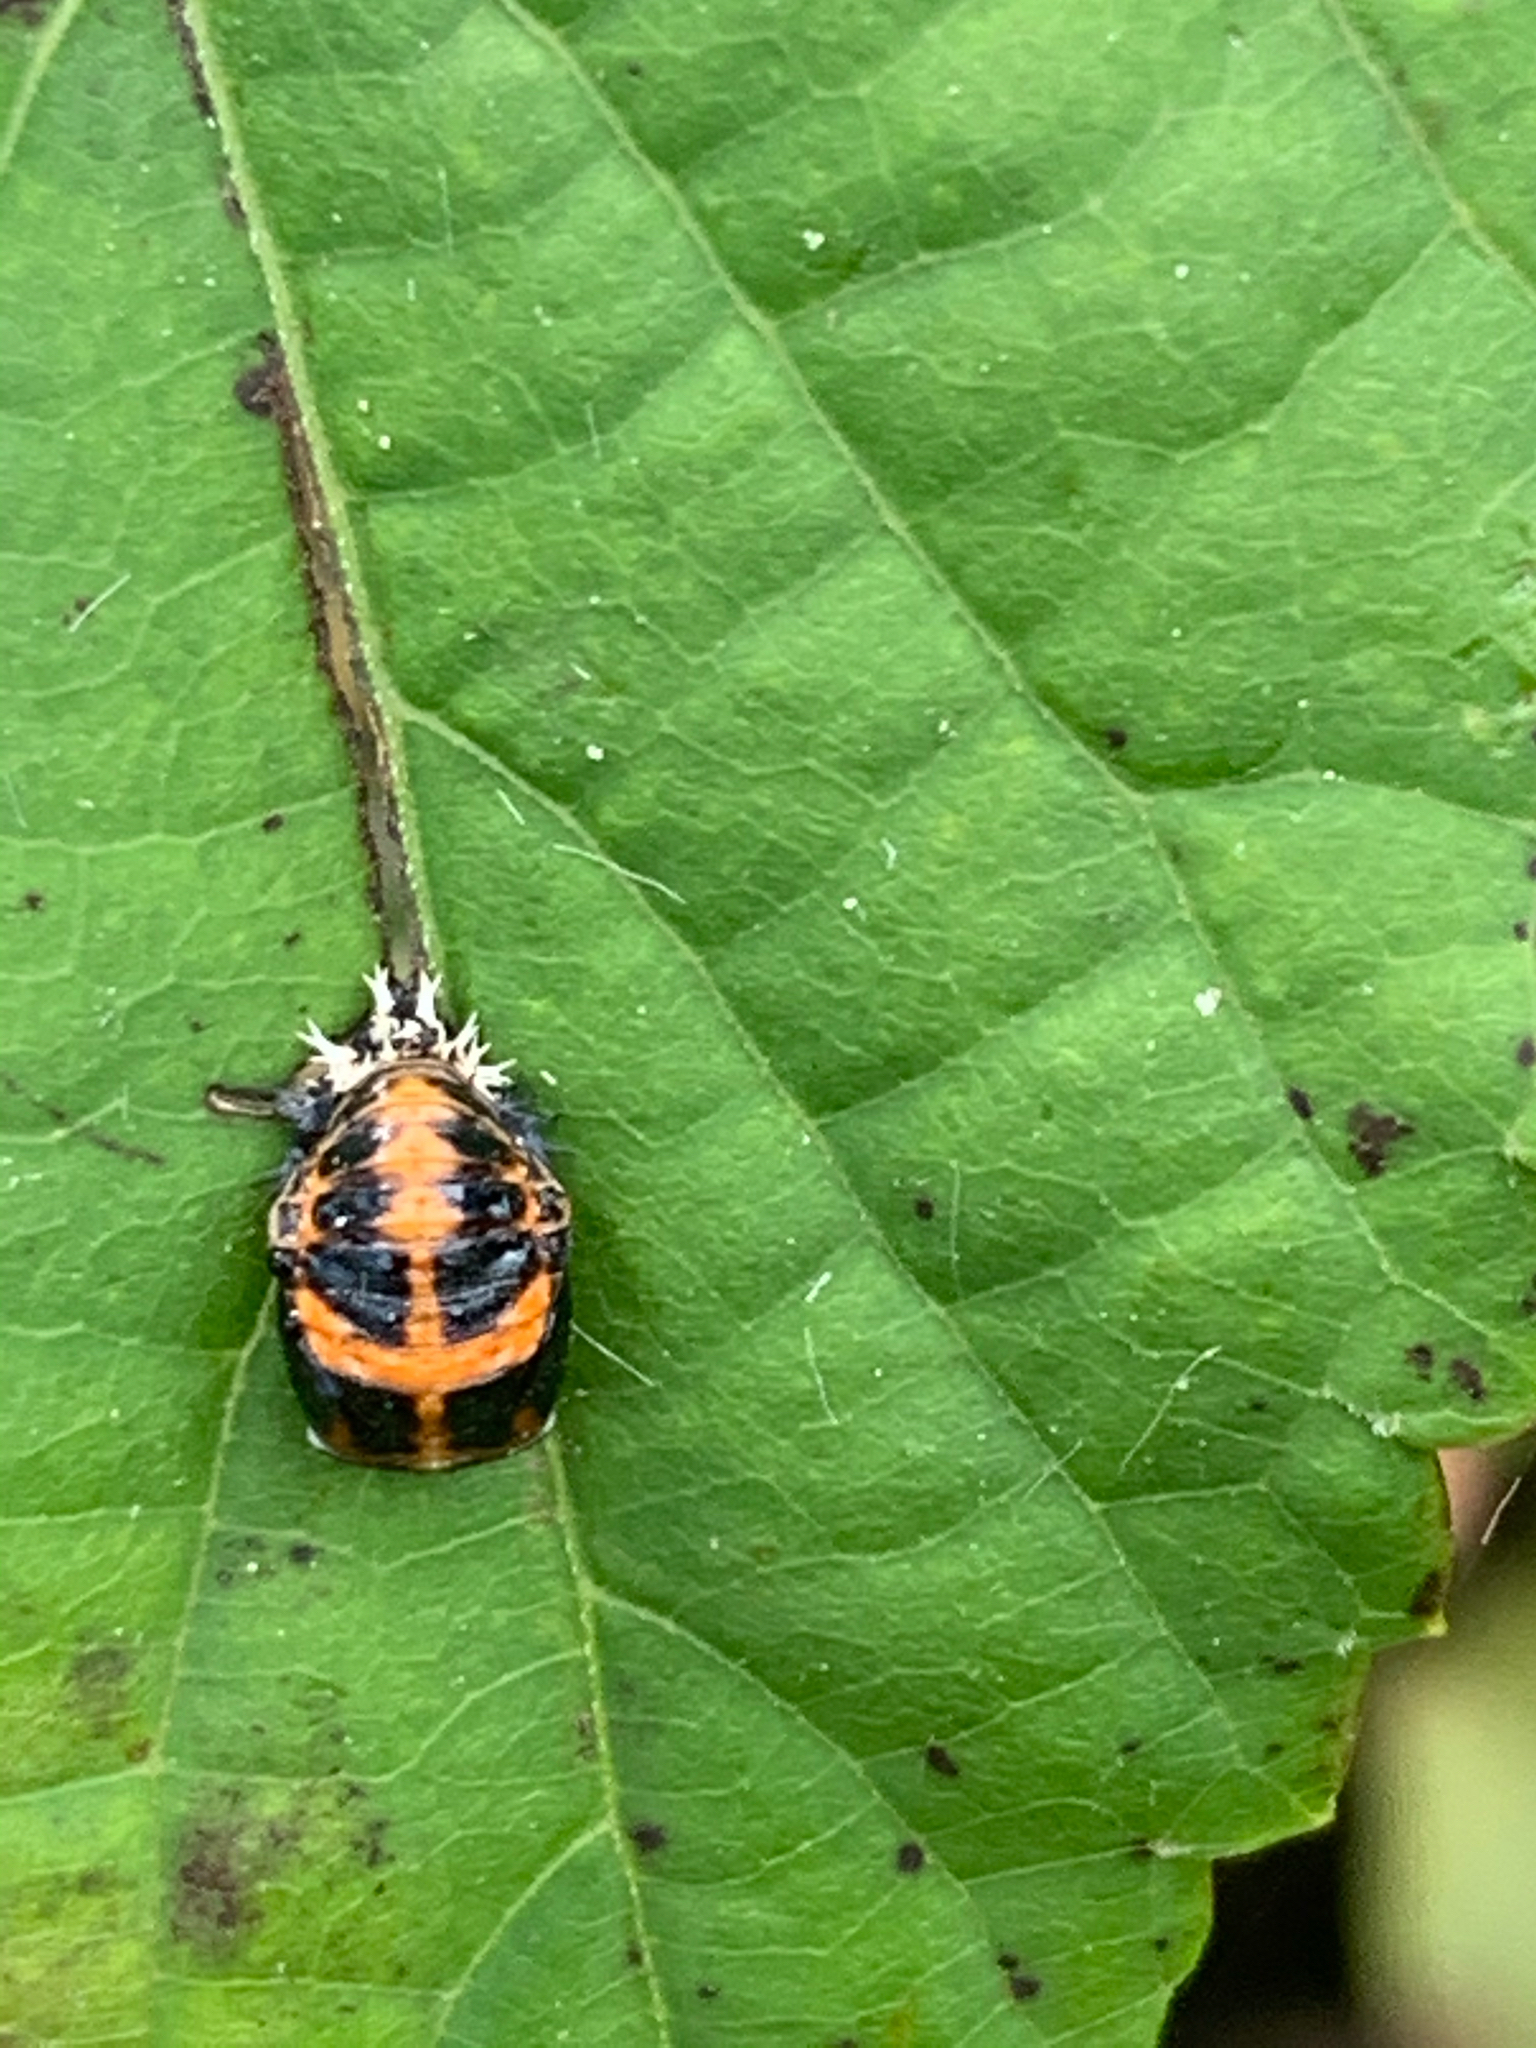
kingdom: Animalia
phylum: Arthropoda
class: Insecta
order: Coleoptera
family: Coccinellidae
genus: Harmonia
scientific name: Harmonia axyridis
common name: Harlequin ladybird
